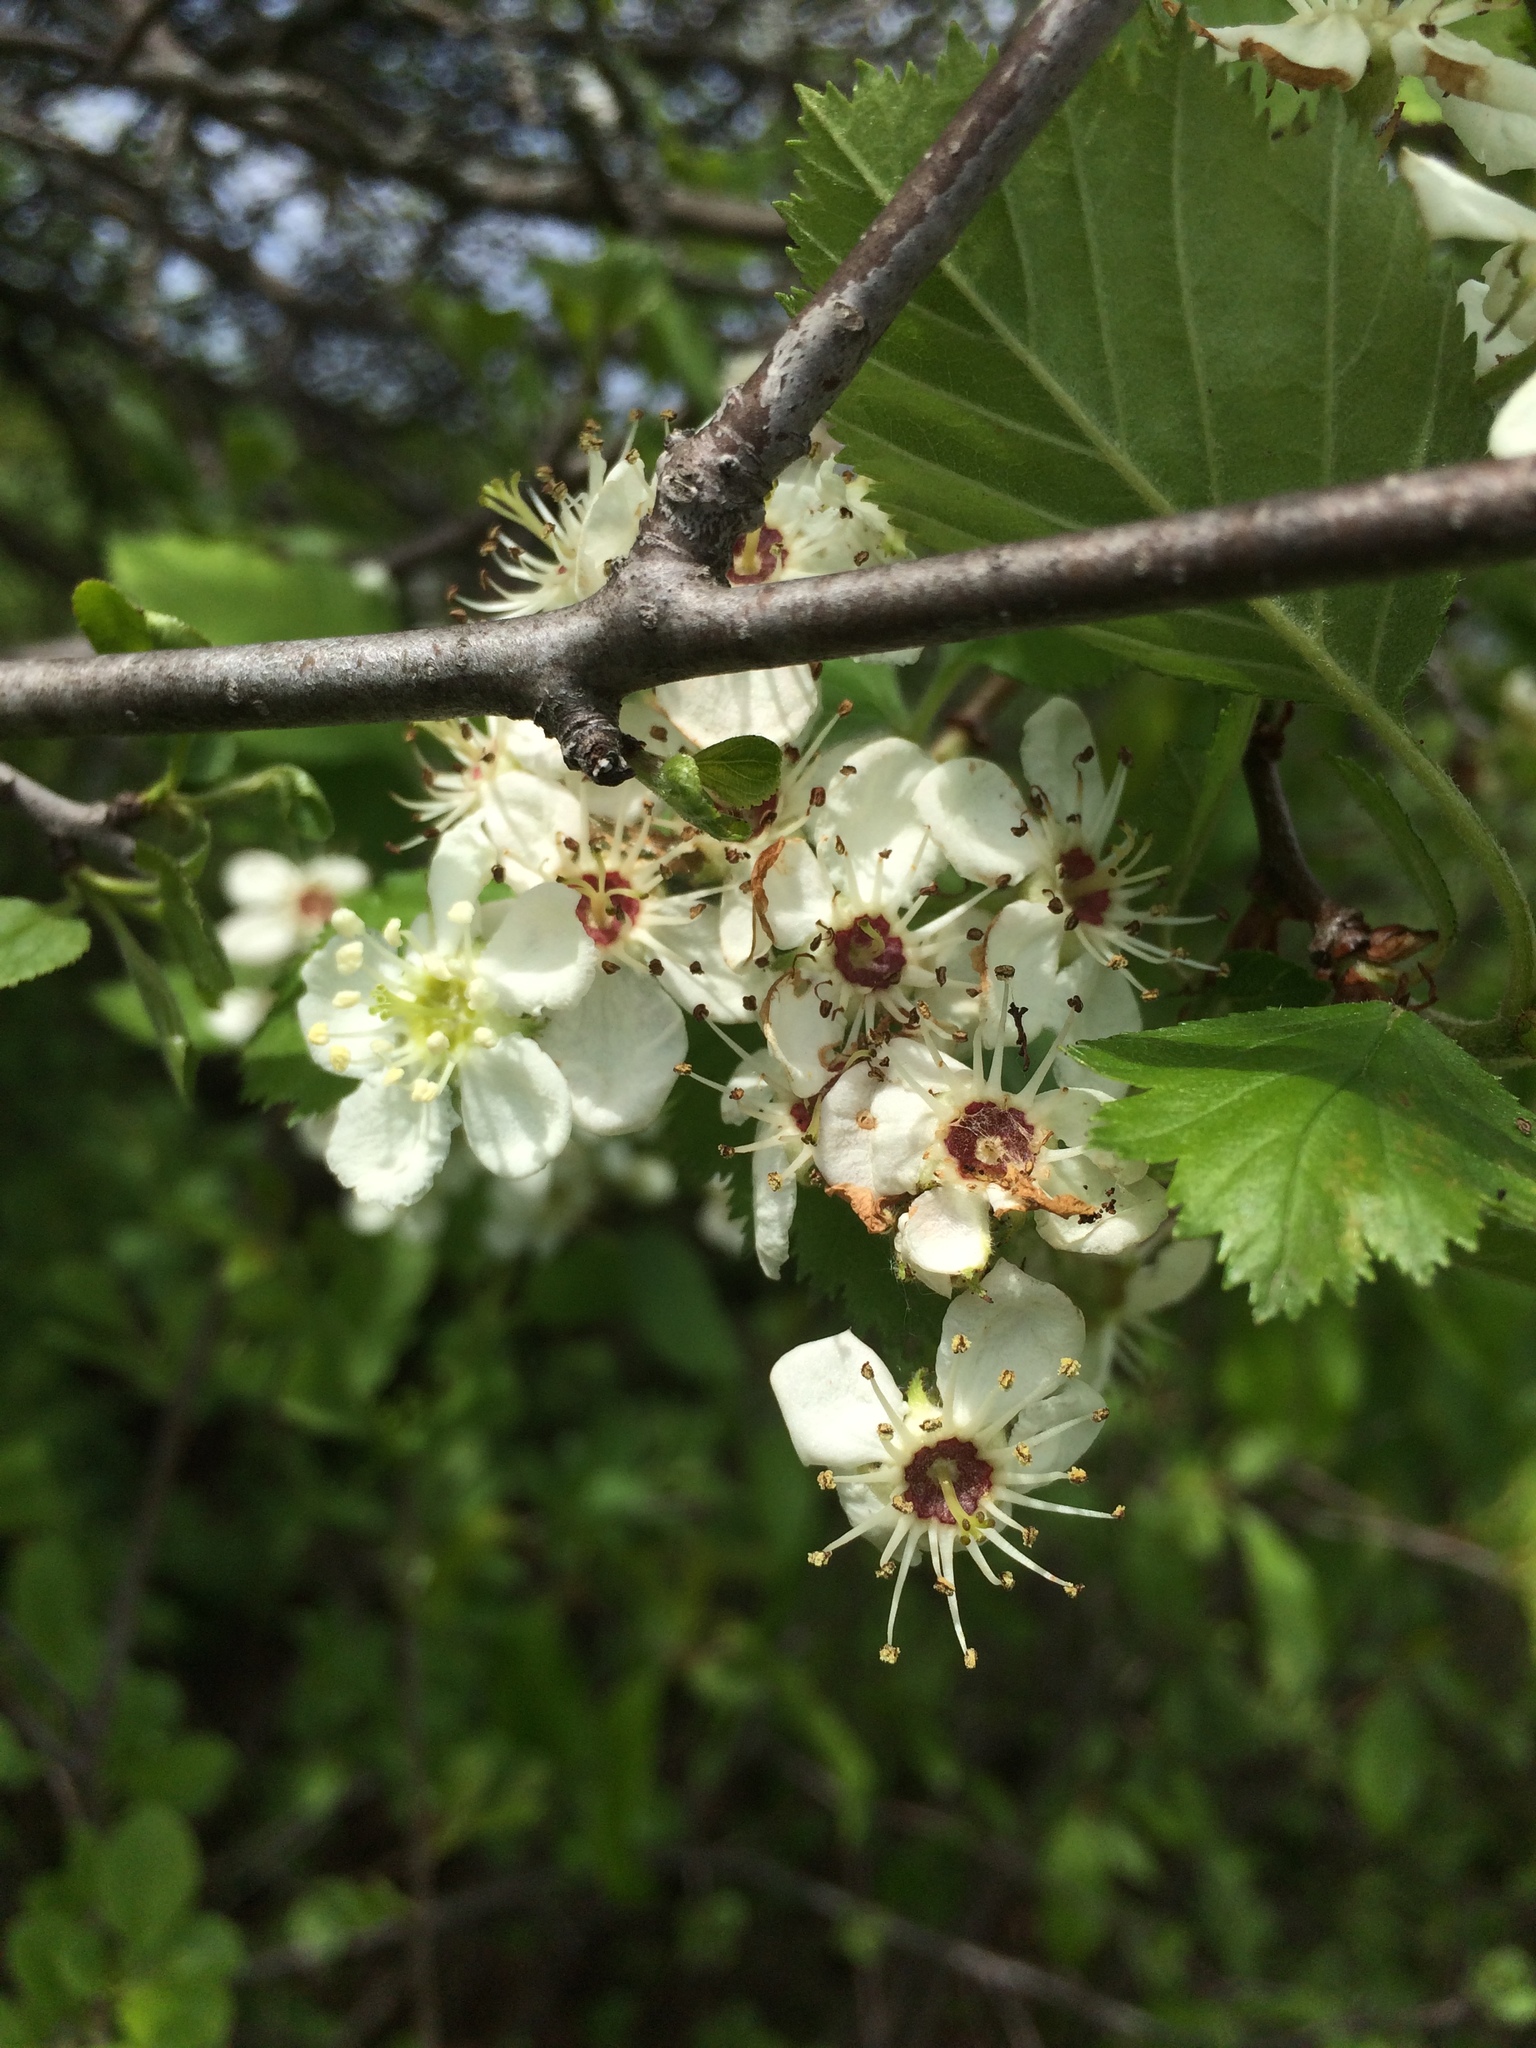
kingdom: Plantae
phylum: Tracheophyta
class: Magnoliopsida
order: Rosales
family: Rosaceae
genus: Crataegus
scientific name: Crataegus submollis
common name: Hairy cockspurthorn
